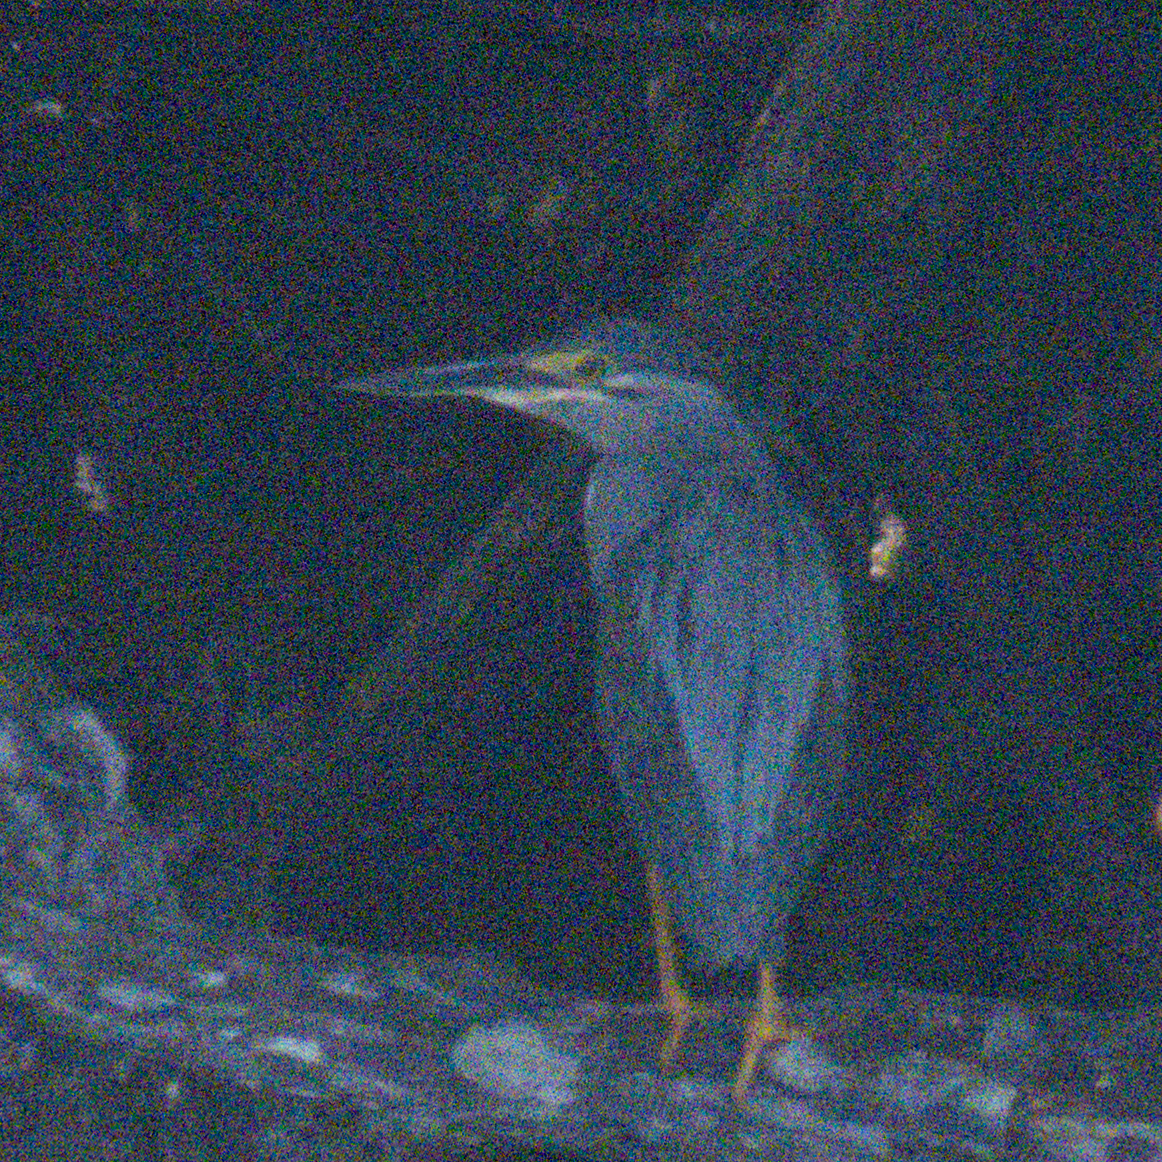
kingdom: Animalia
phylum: Chordata
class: Aves
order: Pelecaniformes
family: Ardeidae
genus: Butorides
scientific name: Butorides striata
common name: Striated heron
